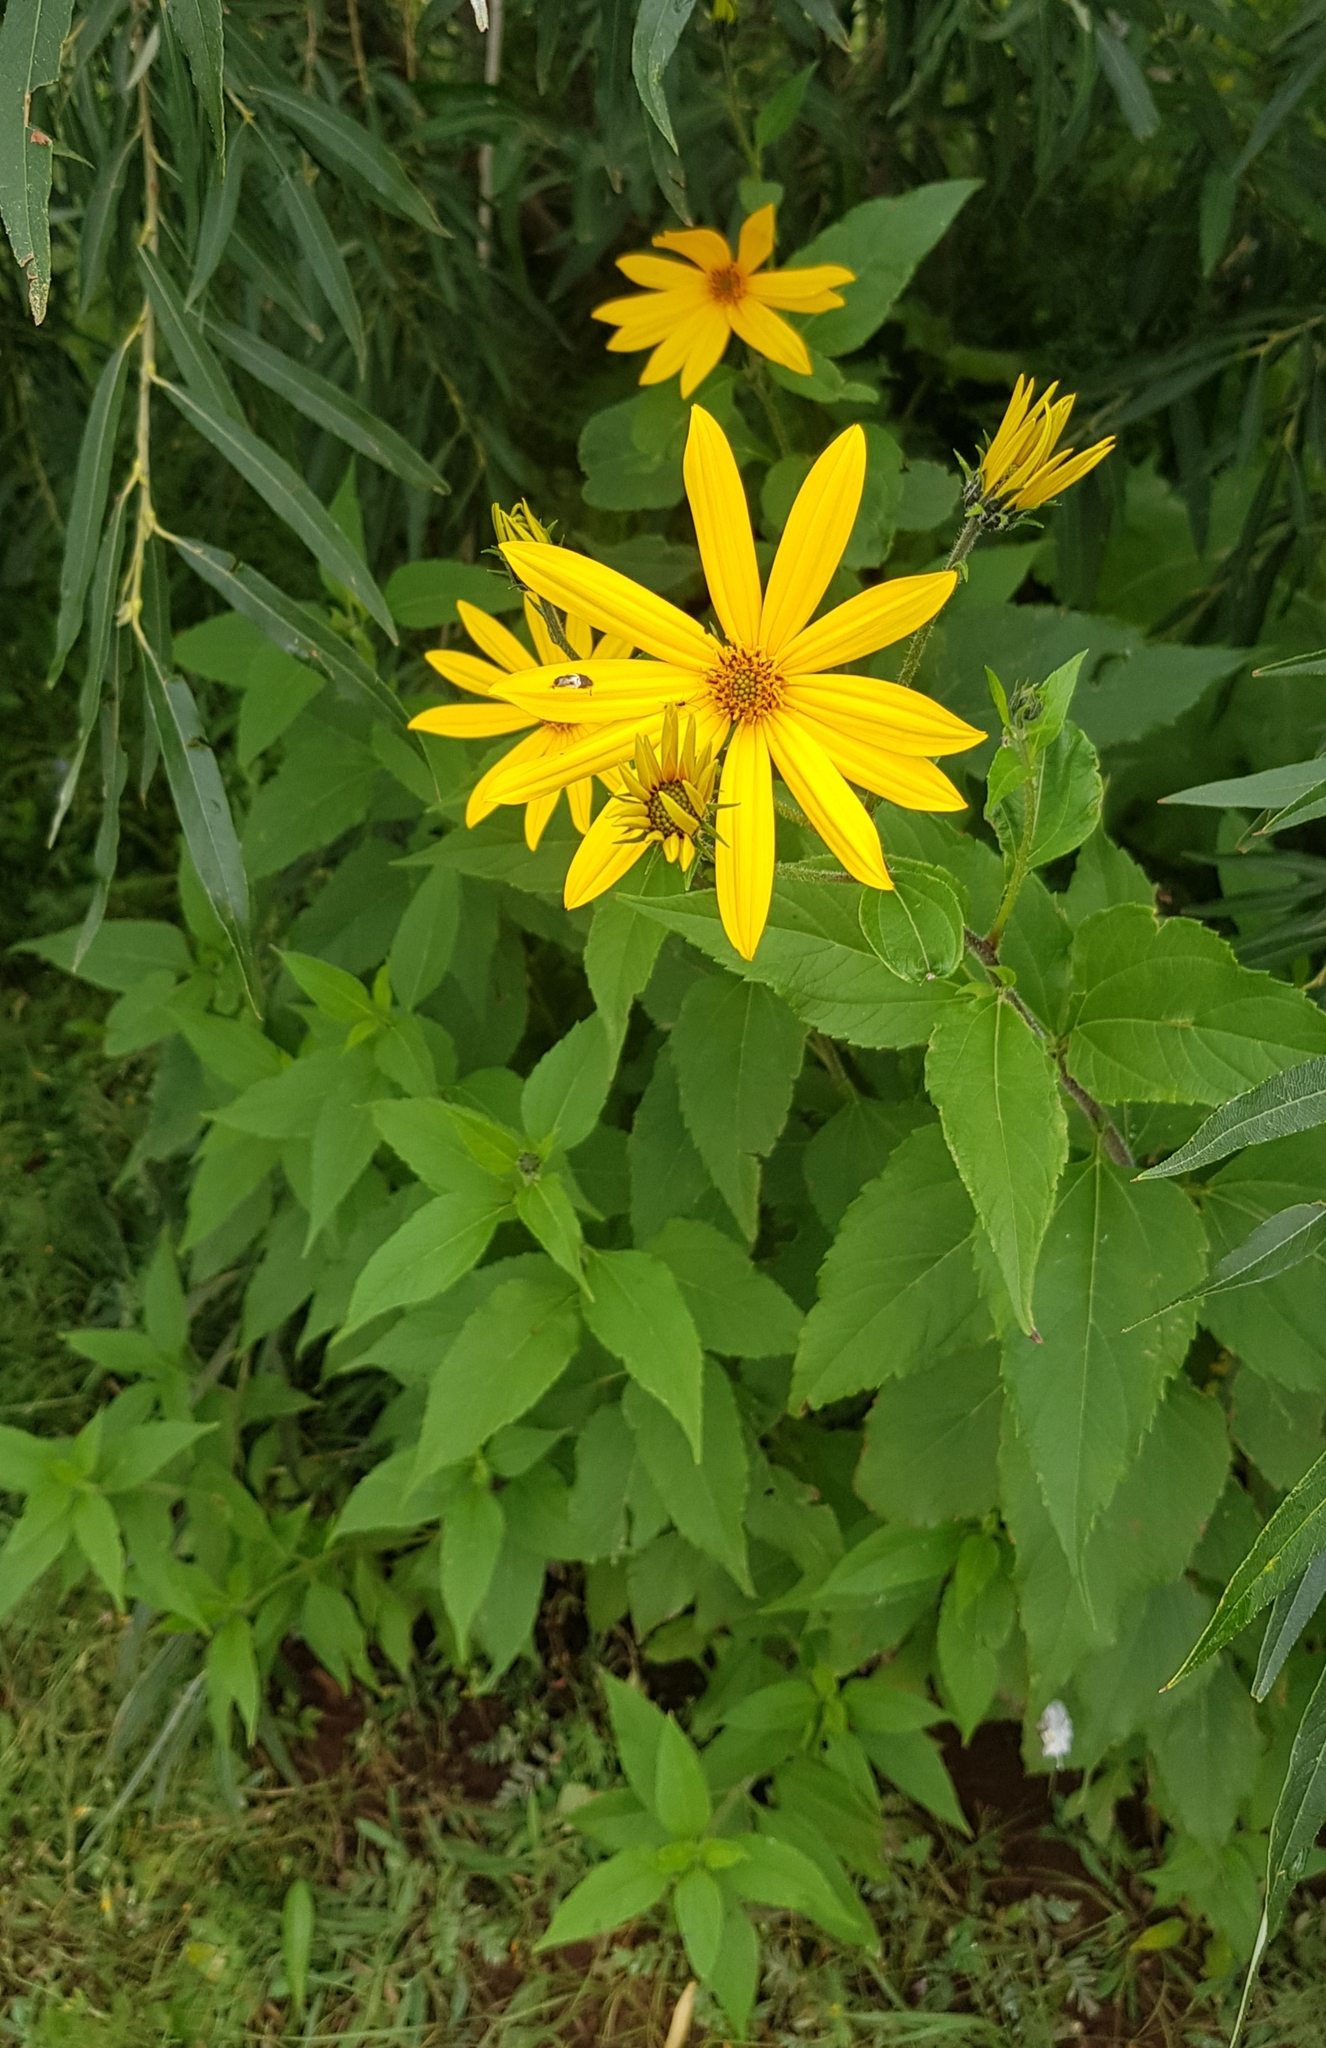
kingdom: Plantae
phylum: Tracheophyta
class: Magnoliopsida
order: Asterales
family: Asteraceae
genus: Helianthus
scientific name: Helianthus tuberosus
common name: Jerusalem artichoke
